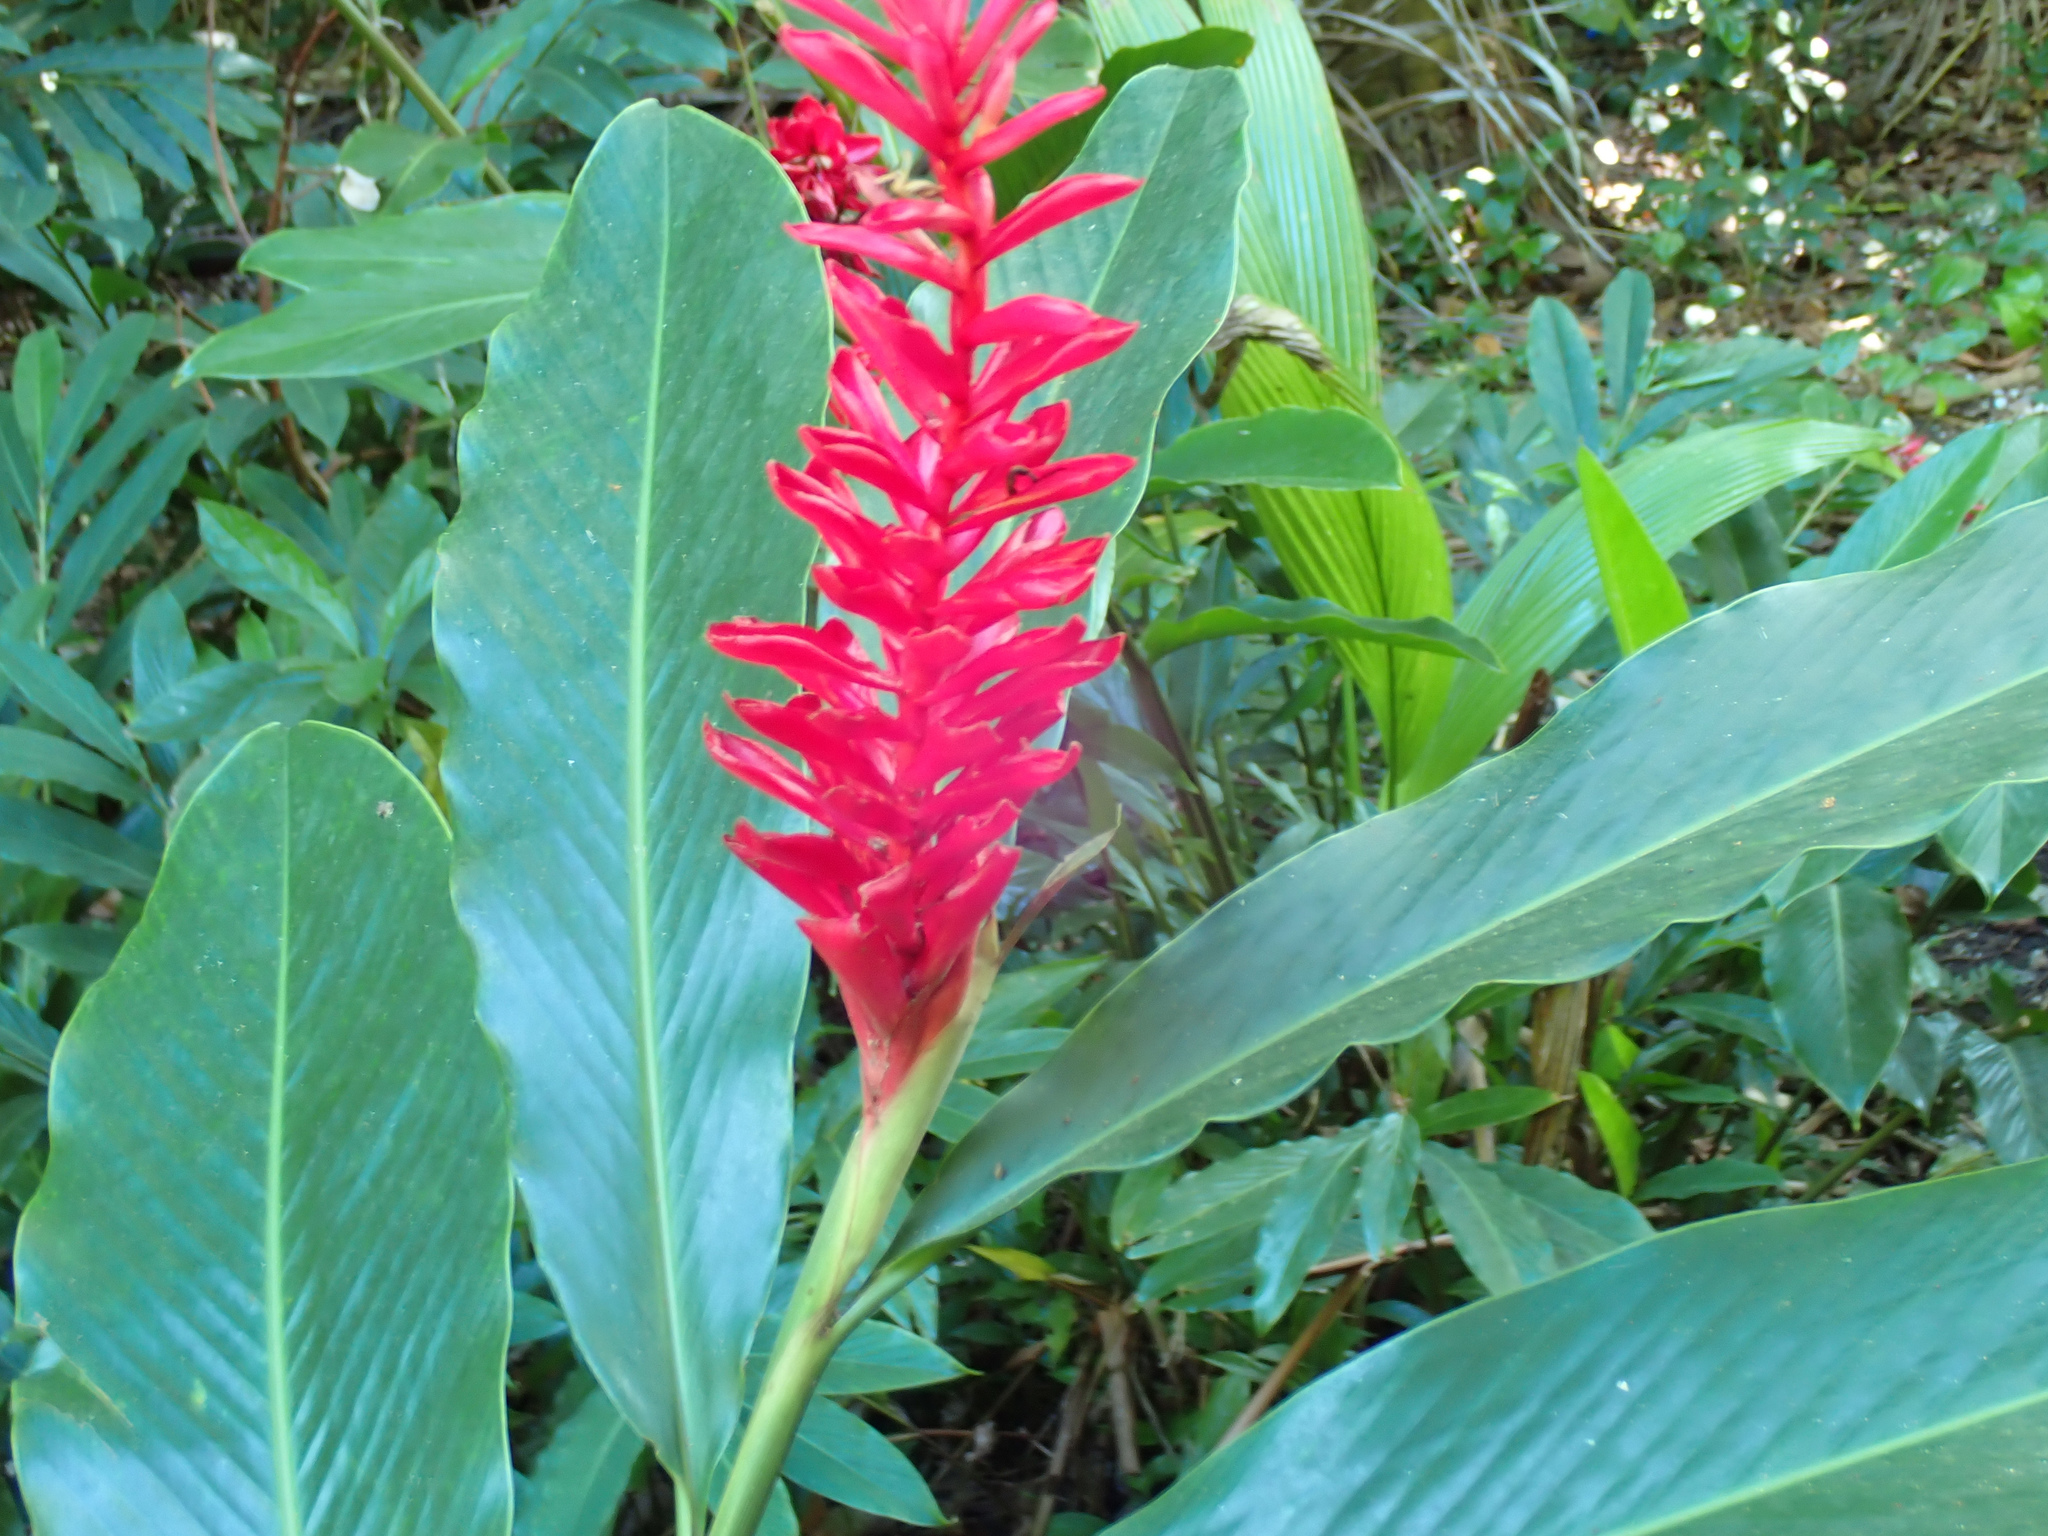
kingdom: Plantae
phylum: Tracheophyta
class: Liliopsida
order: Zingiberales
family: Zingiberaceae
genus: Alpinia
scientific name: Alpinia purpurata
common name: Red ginger
